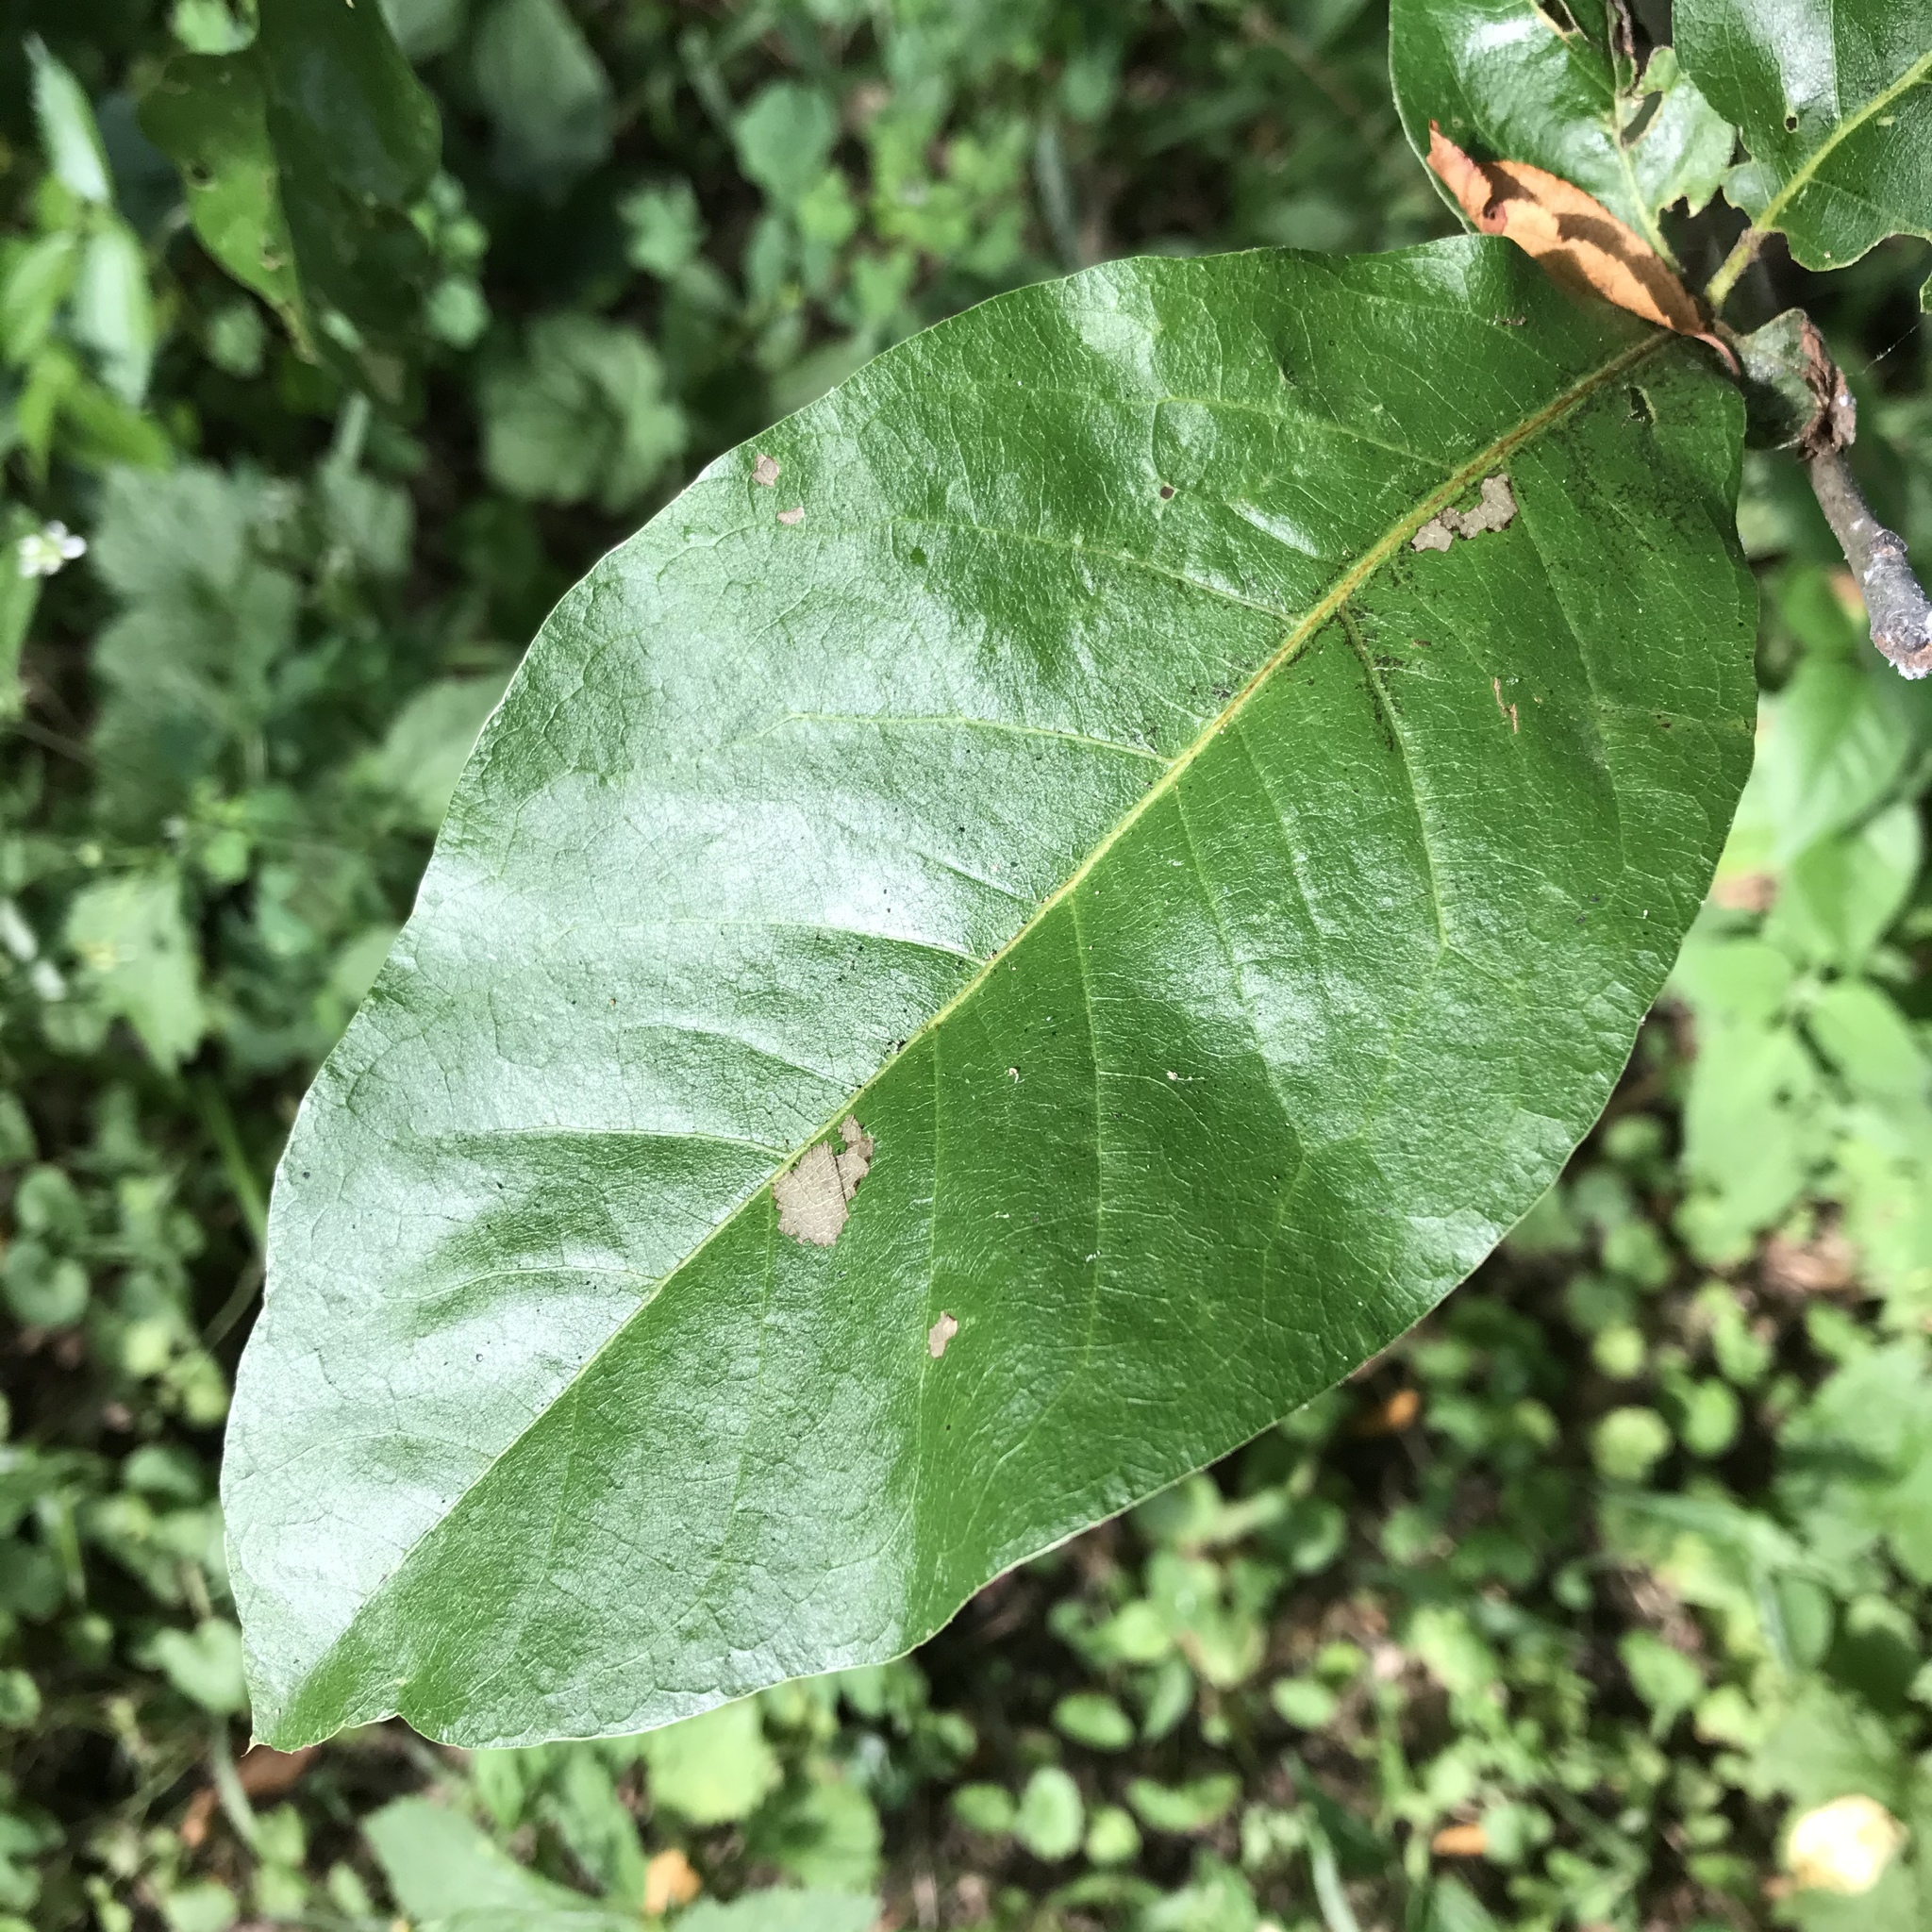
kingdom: Plantae
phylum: Tracheophyta
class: Magnoliopsida
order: Fagales
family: Fagaceae
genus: Quercus
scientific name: Quercus imbricaria
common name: Shingle oak
